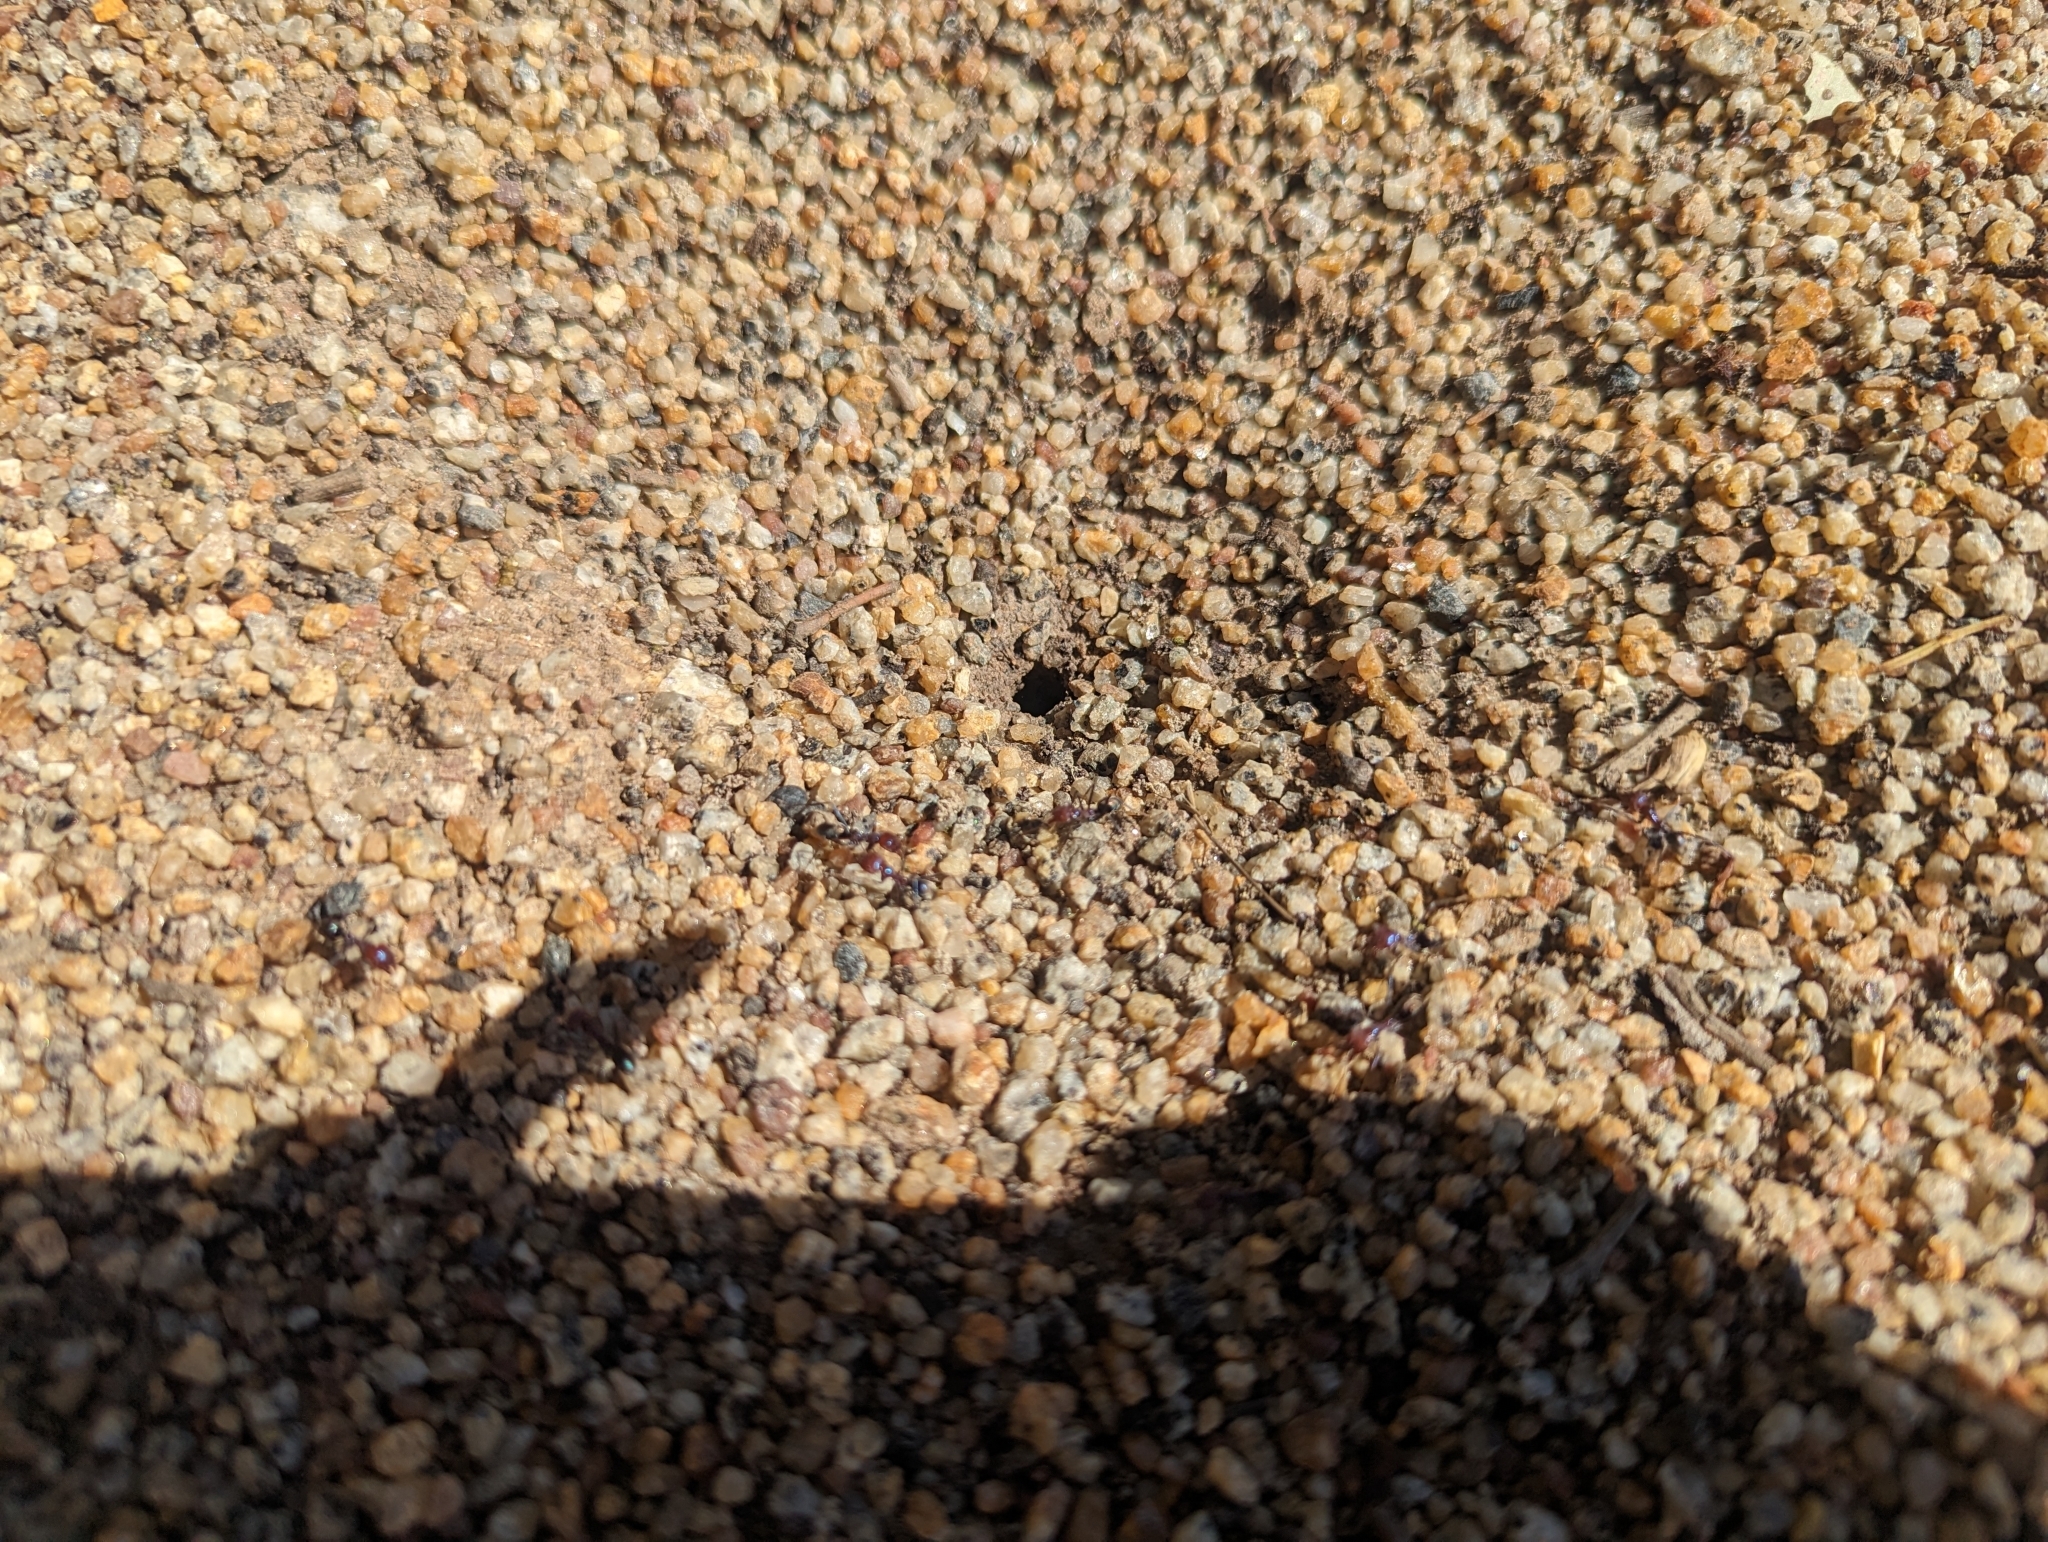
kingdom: Animalia
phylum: Arthropoda
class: Insecta
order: Hymenoptera
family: Formicidae
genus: Iridomyrmex
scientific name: Iridomyrmex purpureus
